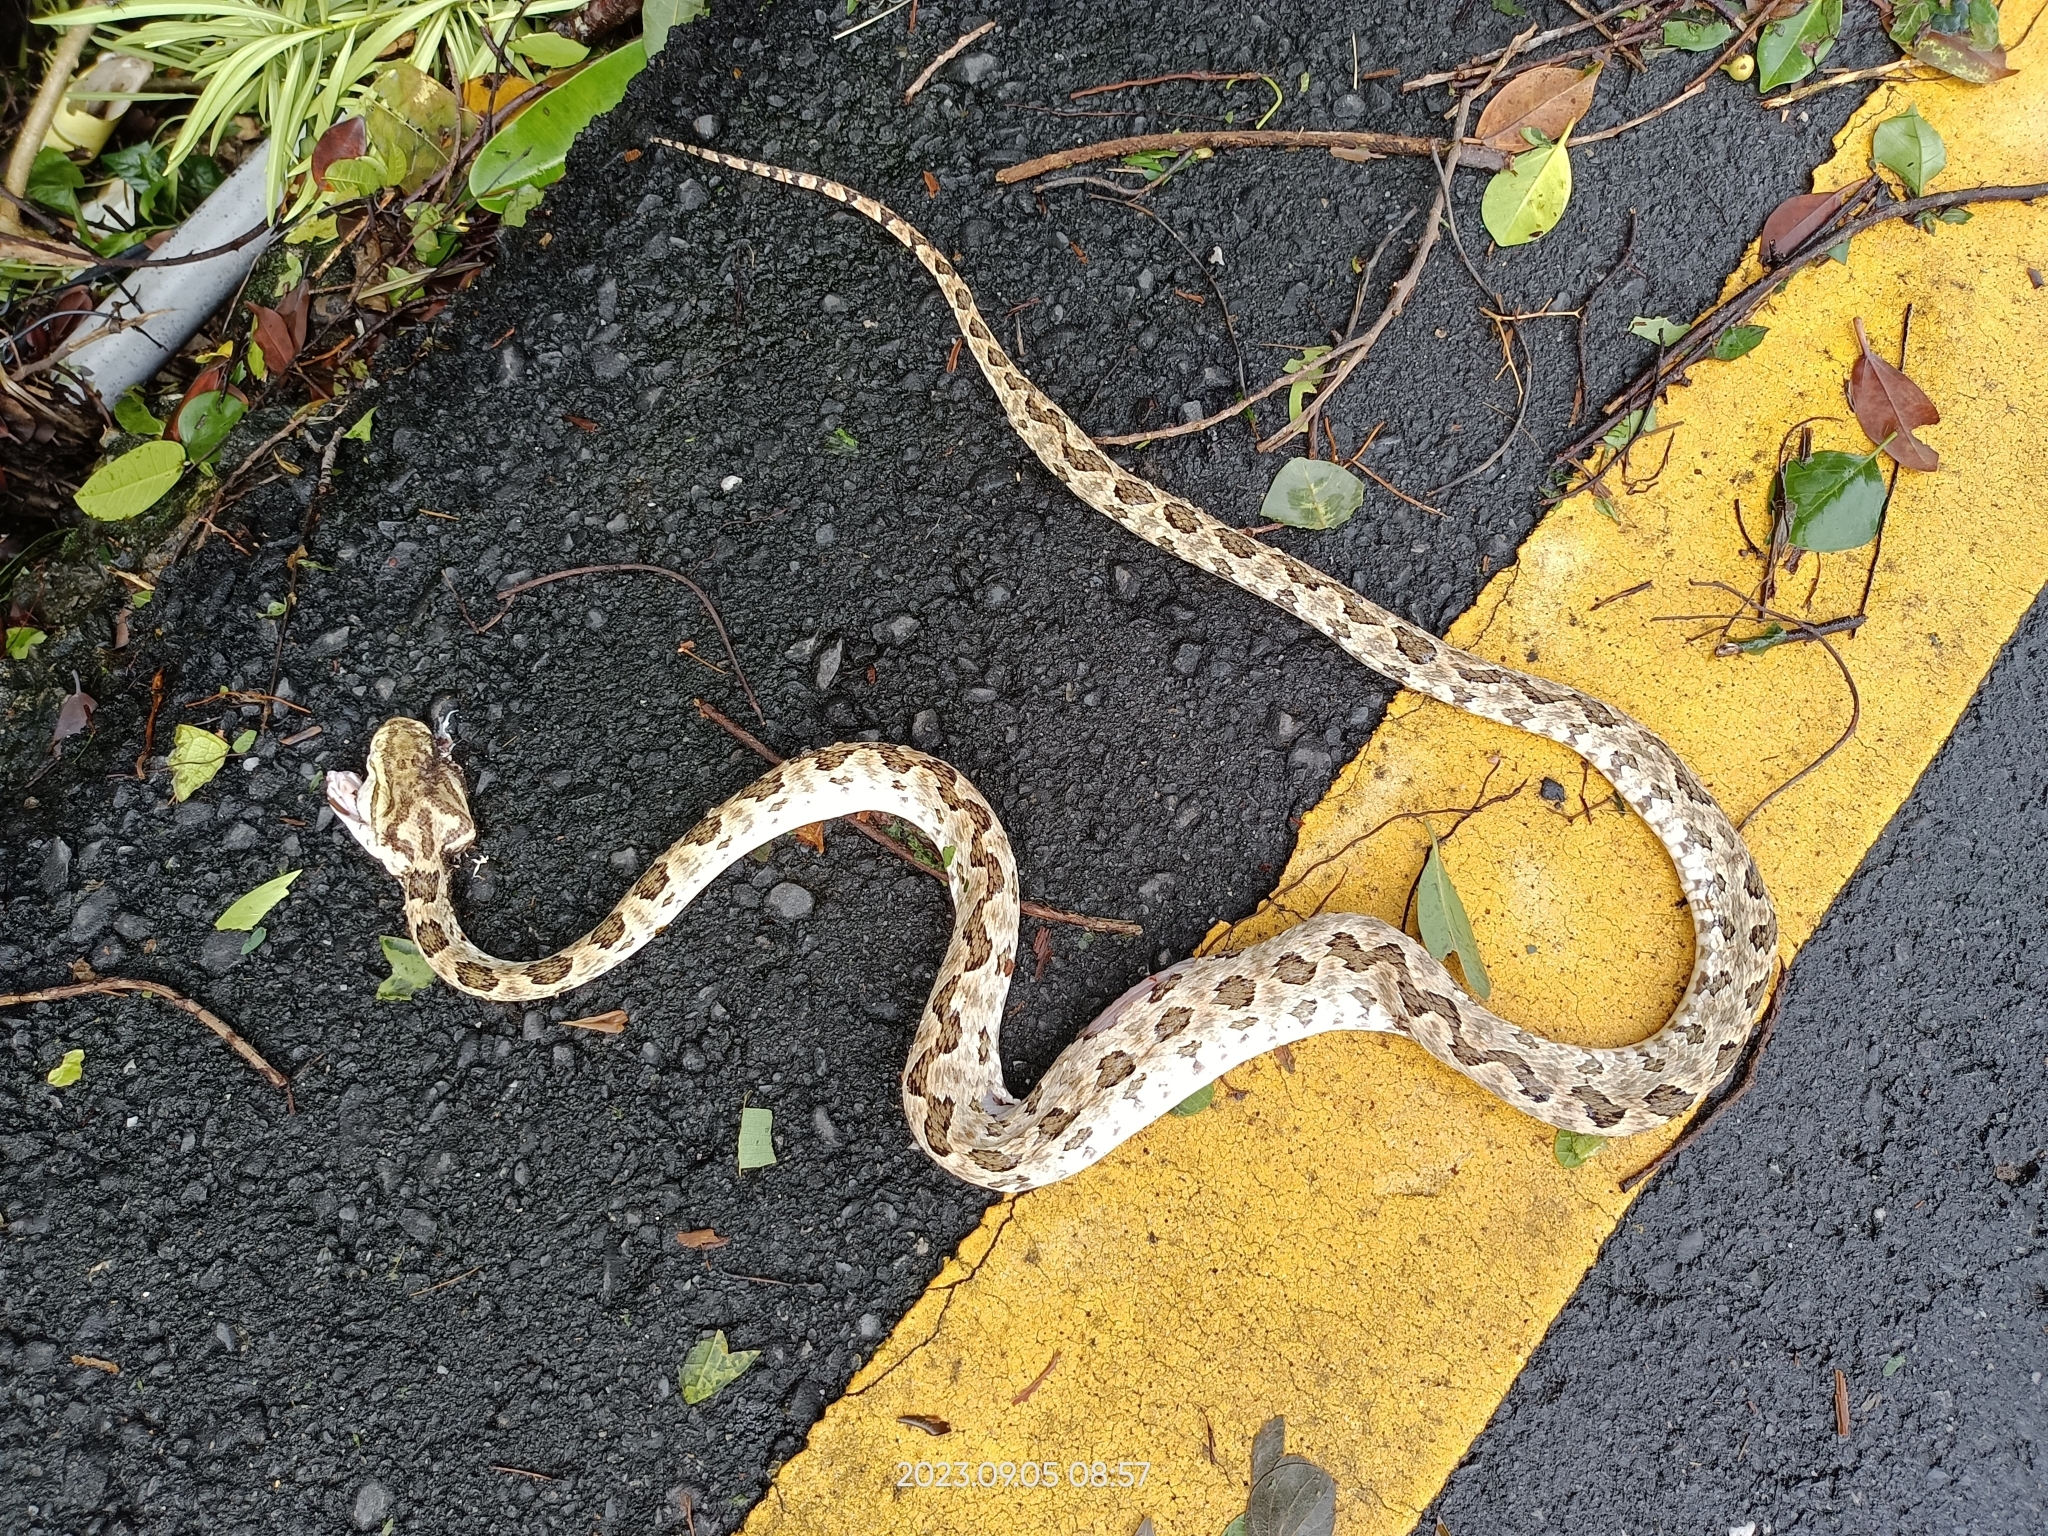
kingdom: Animalia
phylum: Chordata
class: Squamata
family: Viperidae
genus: Protobothrops
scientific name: Protobothrops mucrosquamatus
